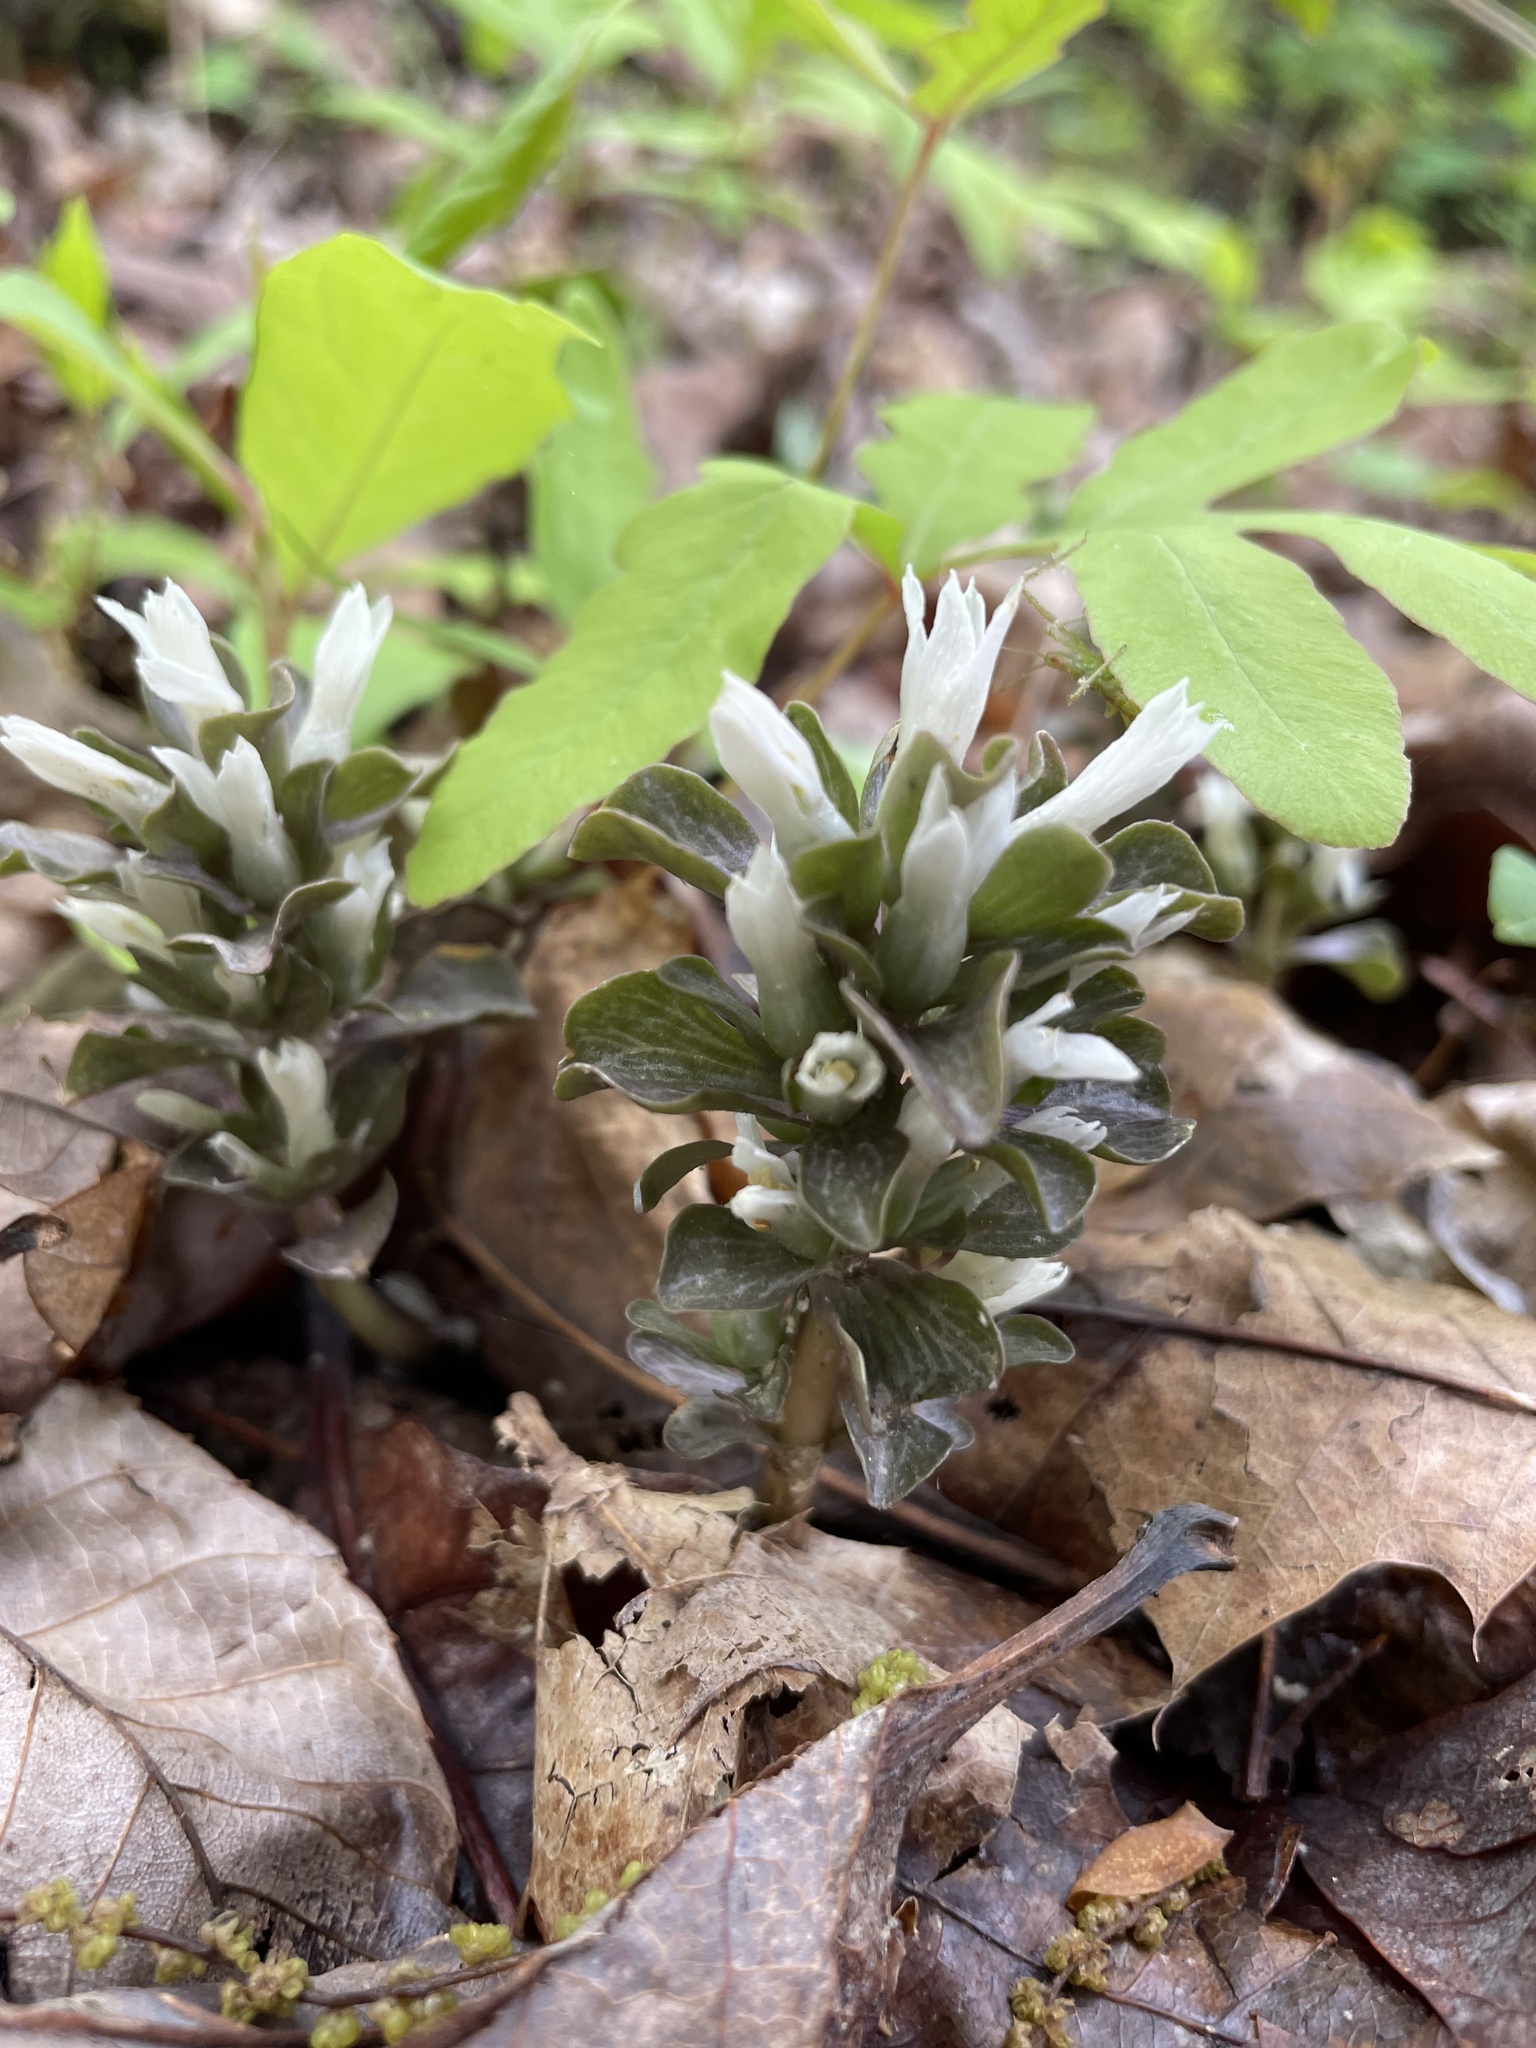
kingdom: Plantae
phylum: Tracheophyta
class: Magnoliopsida
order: Gentianales
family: Gentianaceae
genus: Obolaria
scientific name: Obolaria virginica
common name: Pennywort
